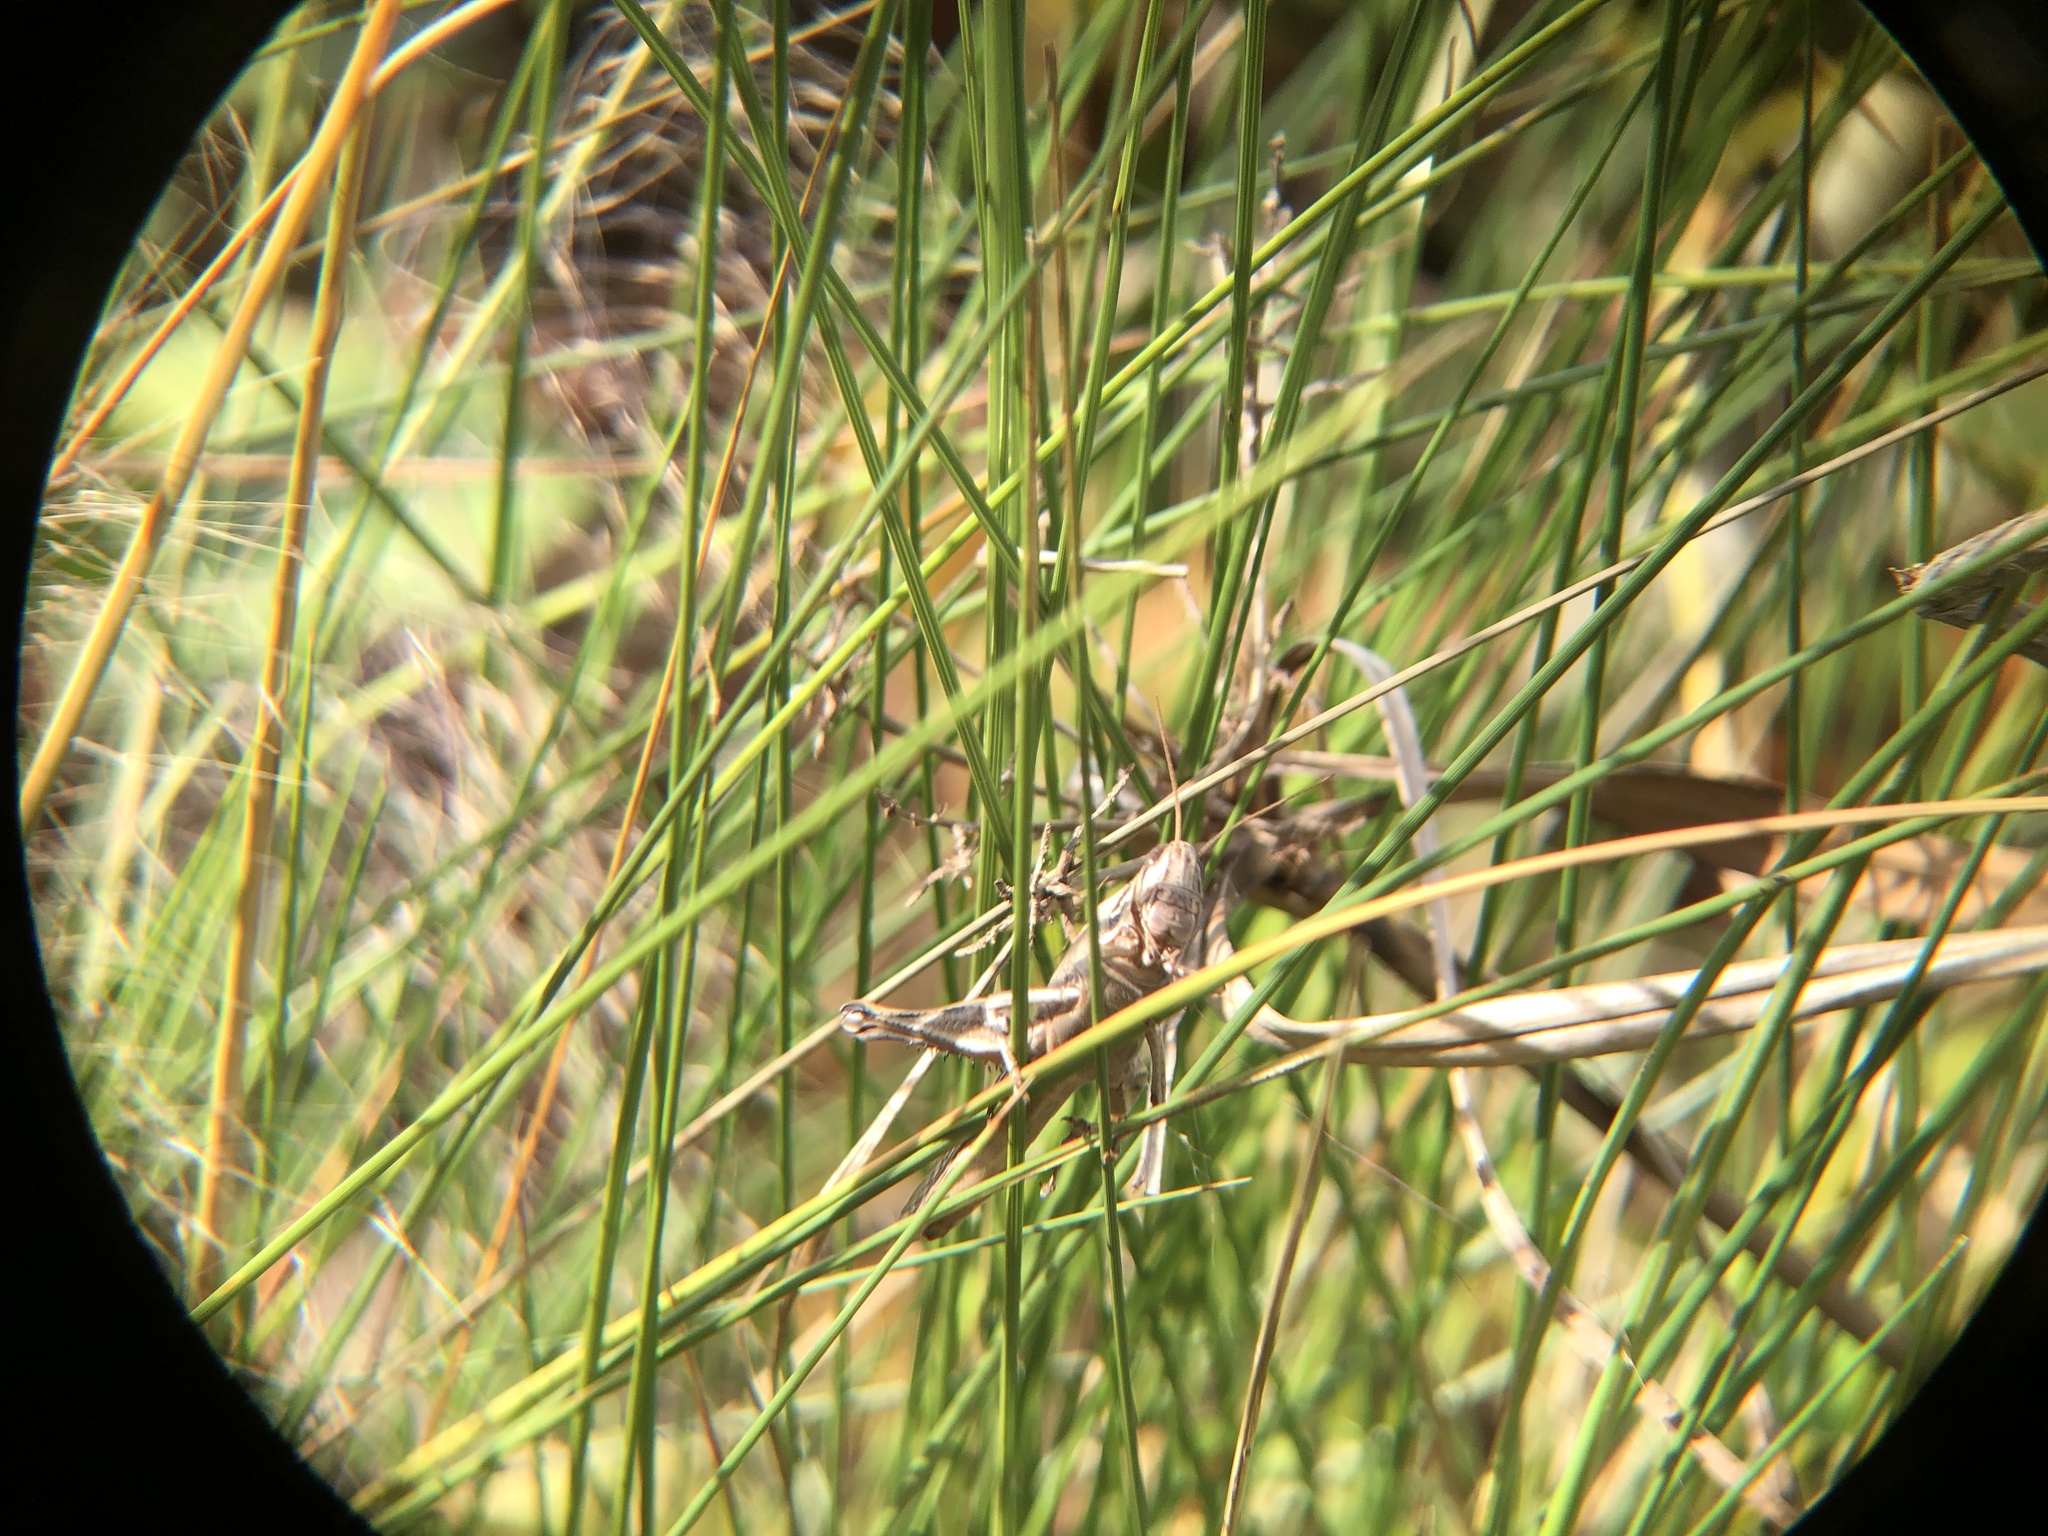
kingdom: Animalia
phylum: Arthropoda
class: Insecta
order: Orthoptera
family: Acrididae
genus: Schistocerca
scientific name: Schistocerca americana
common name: American bird locust
